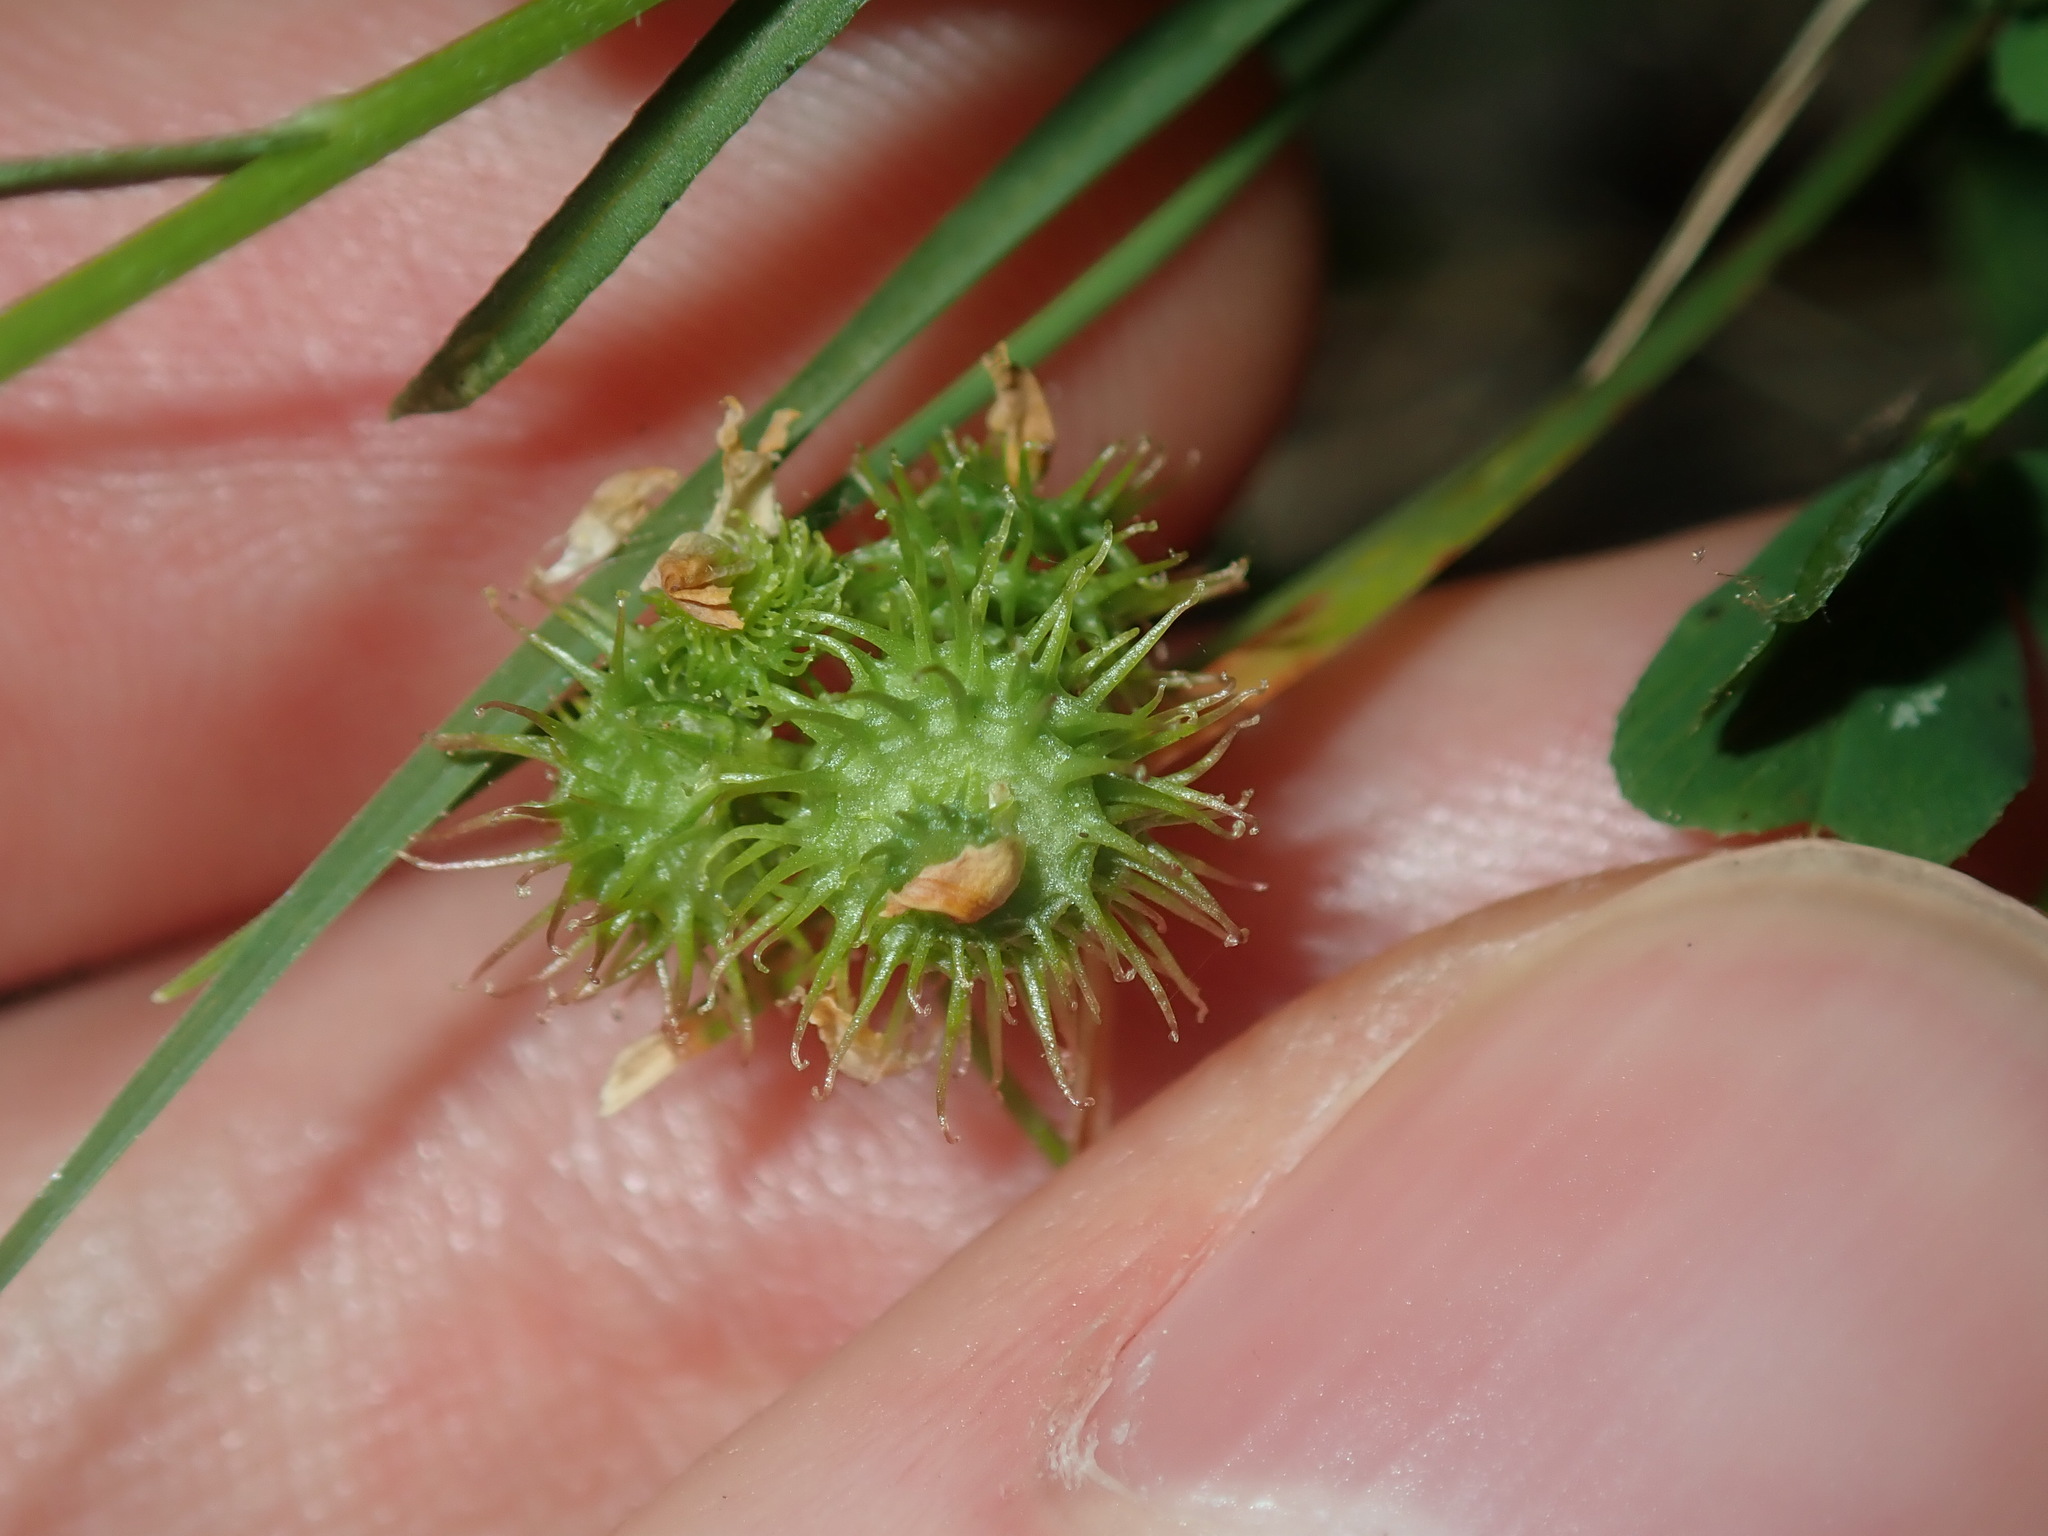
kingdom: Plantae
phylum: Tracheophyta
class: Magnoliopsida
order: Fabales
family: Fabaceae
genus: Medicago
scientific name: Medicago polymorpha
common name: Burclover
